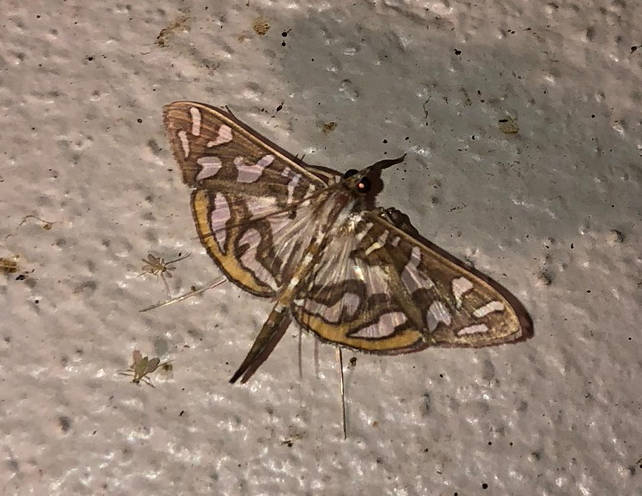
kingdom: Animalia
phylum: Arthropoda
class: Insecta
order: Lepidoptera
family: Crambidae
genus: Nausinoe
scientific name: Nausinoe perspectata
